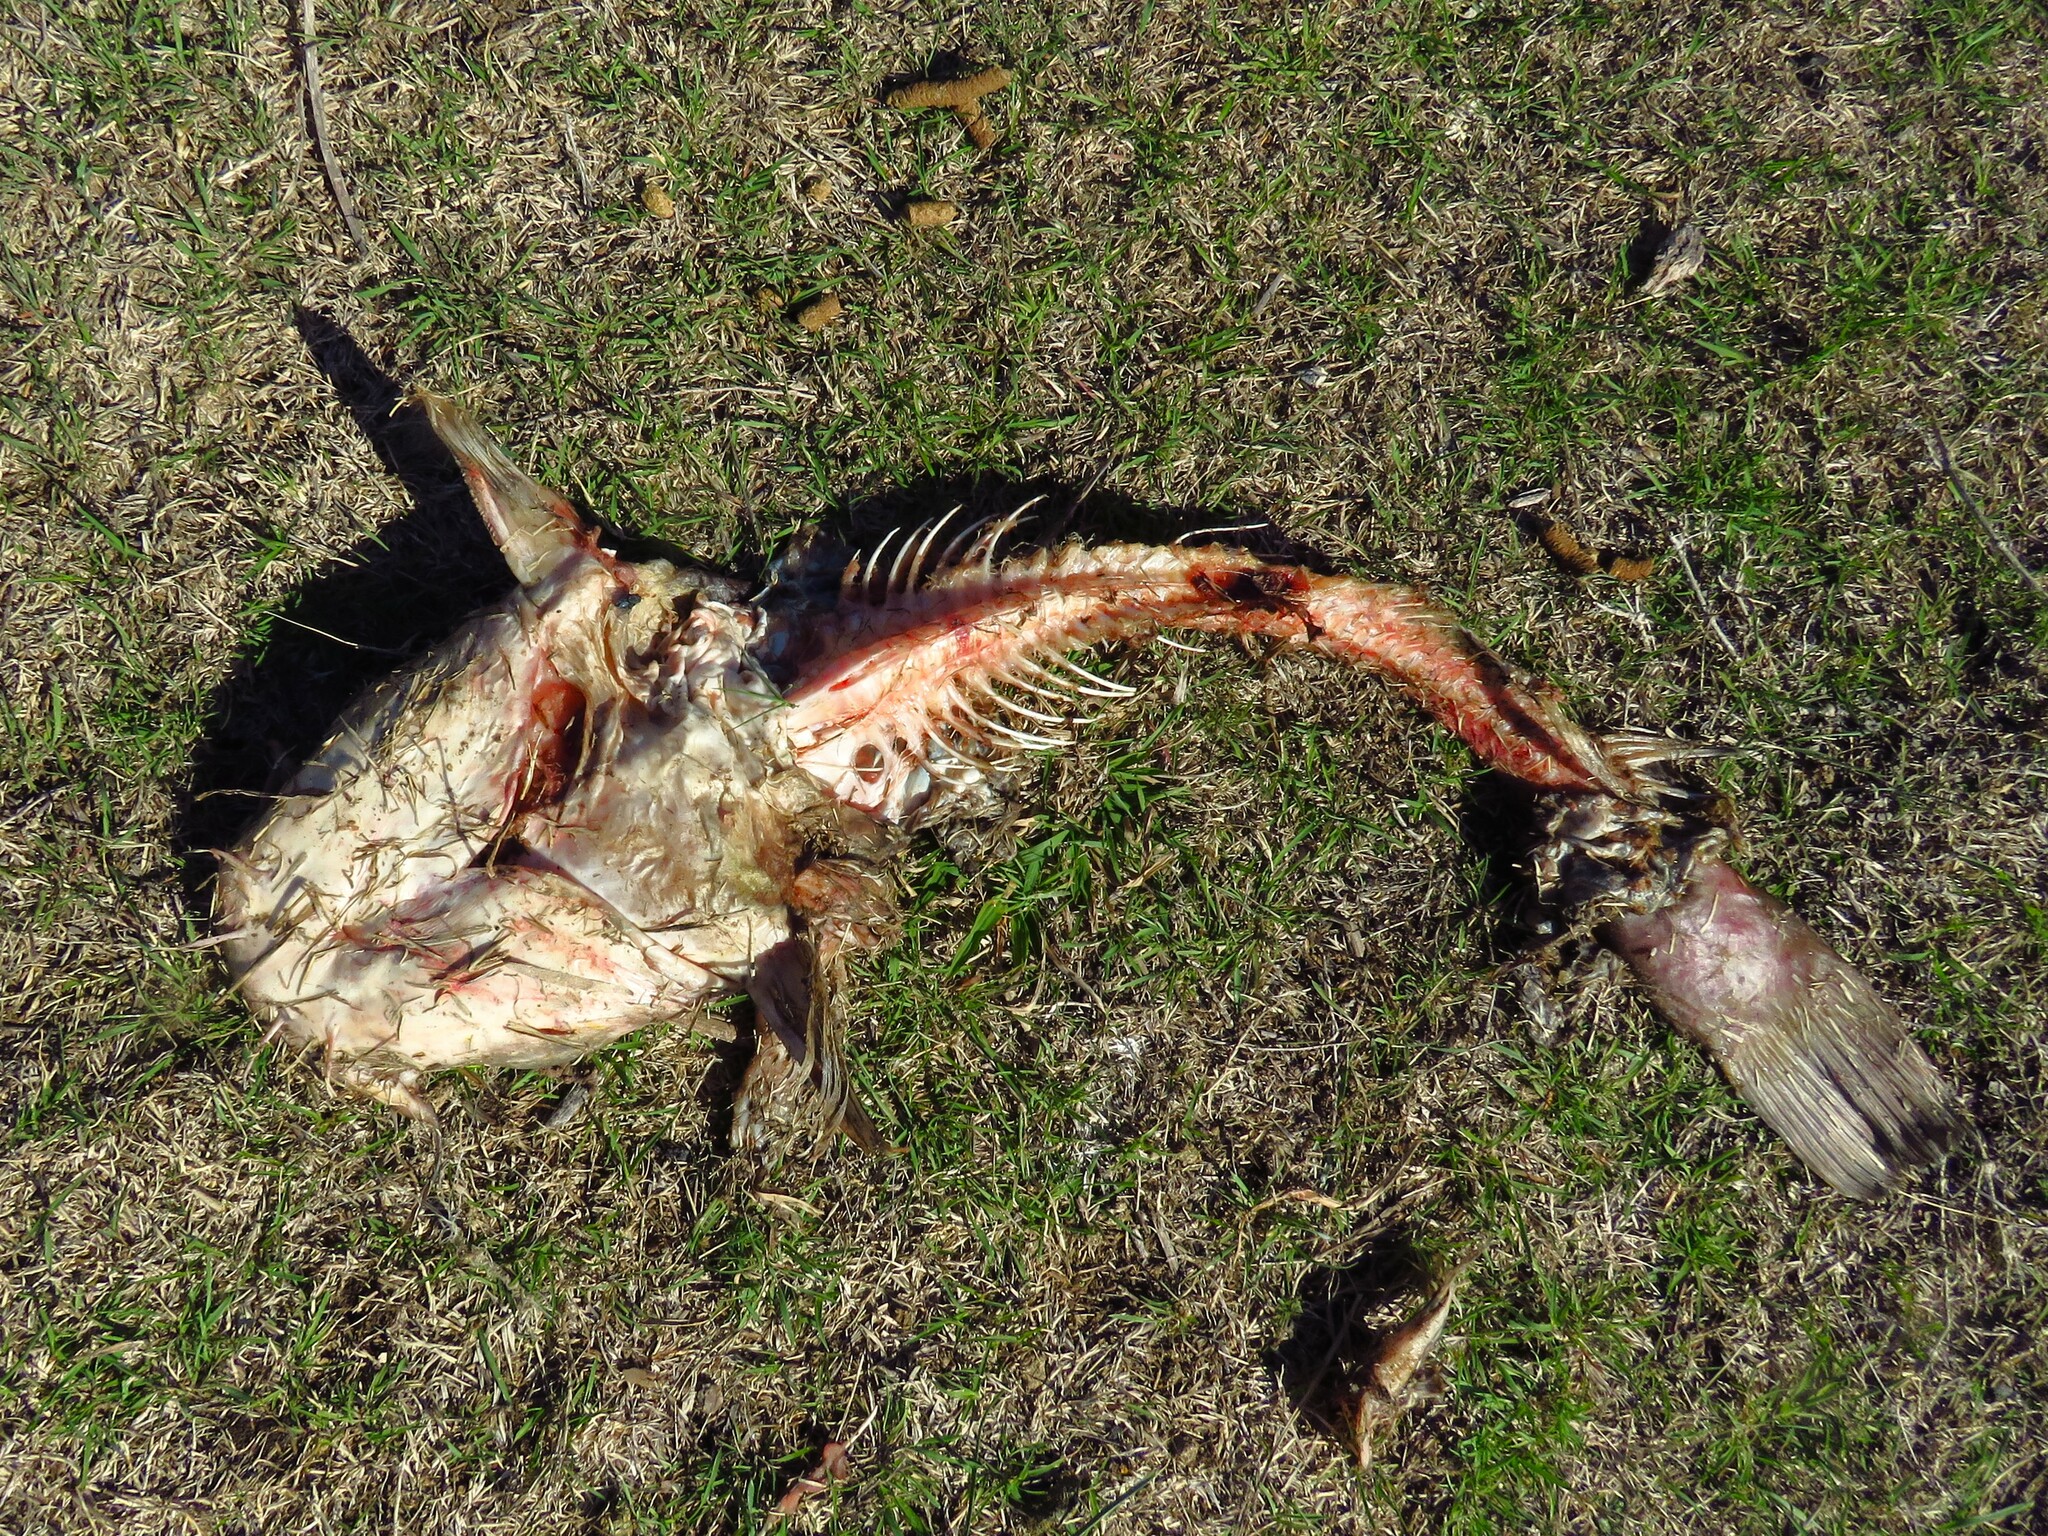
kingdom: Animalia
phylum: Chordata
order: Siluriformes
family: Ictaluridae
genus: Pylodictis
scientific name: Pylodictis olivaris
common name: Flathead catfish
